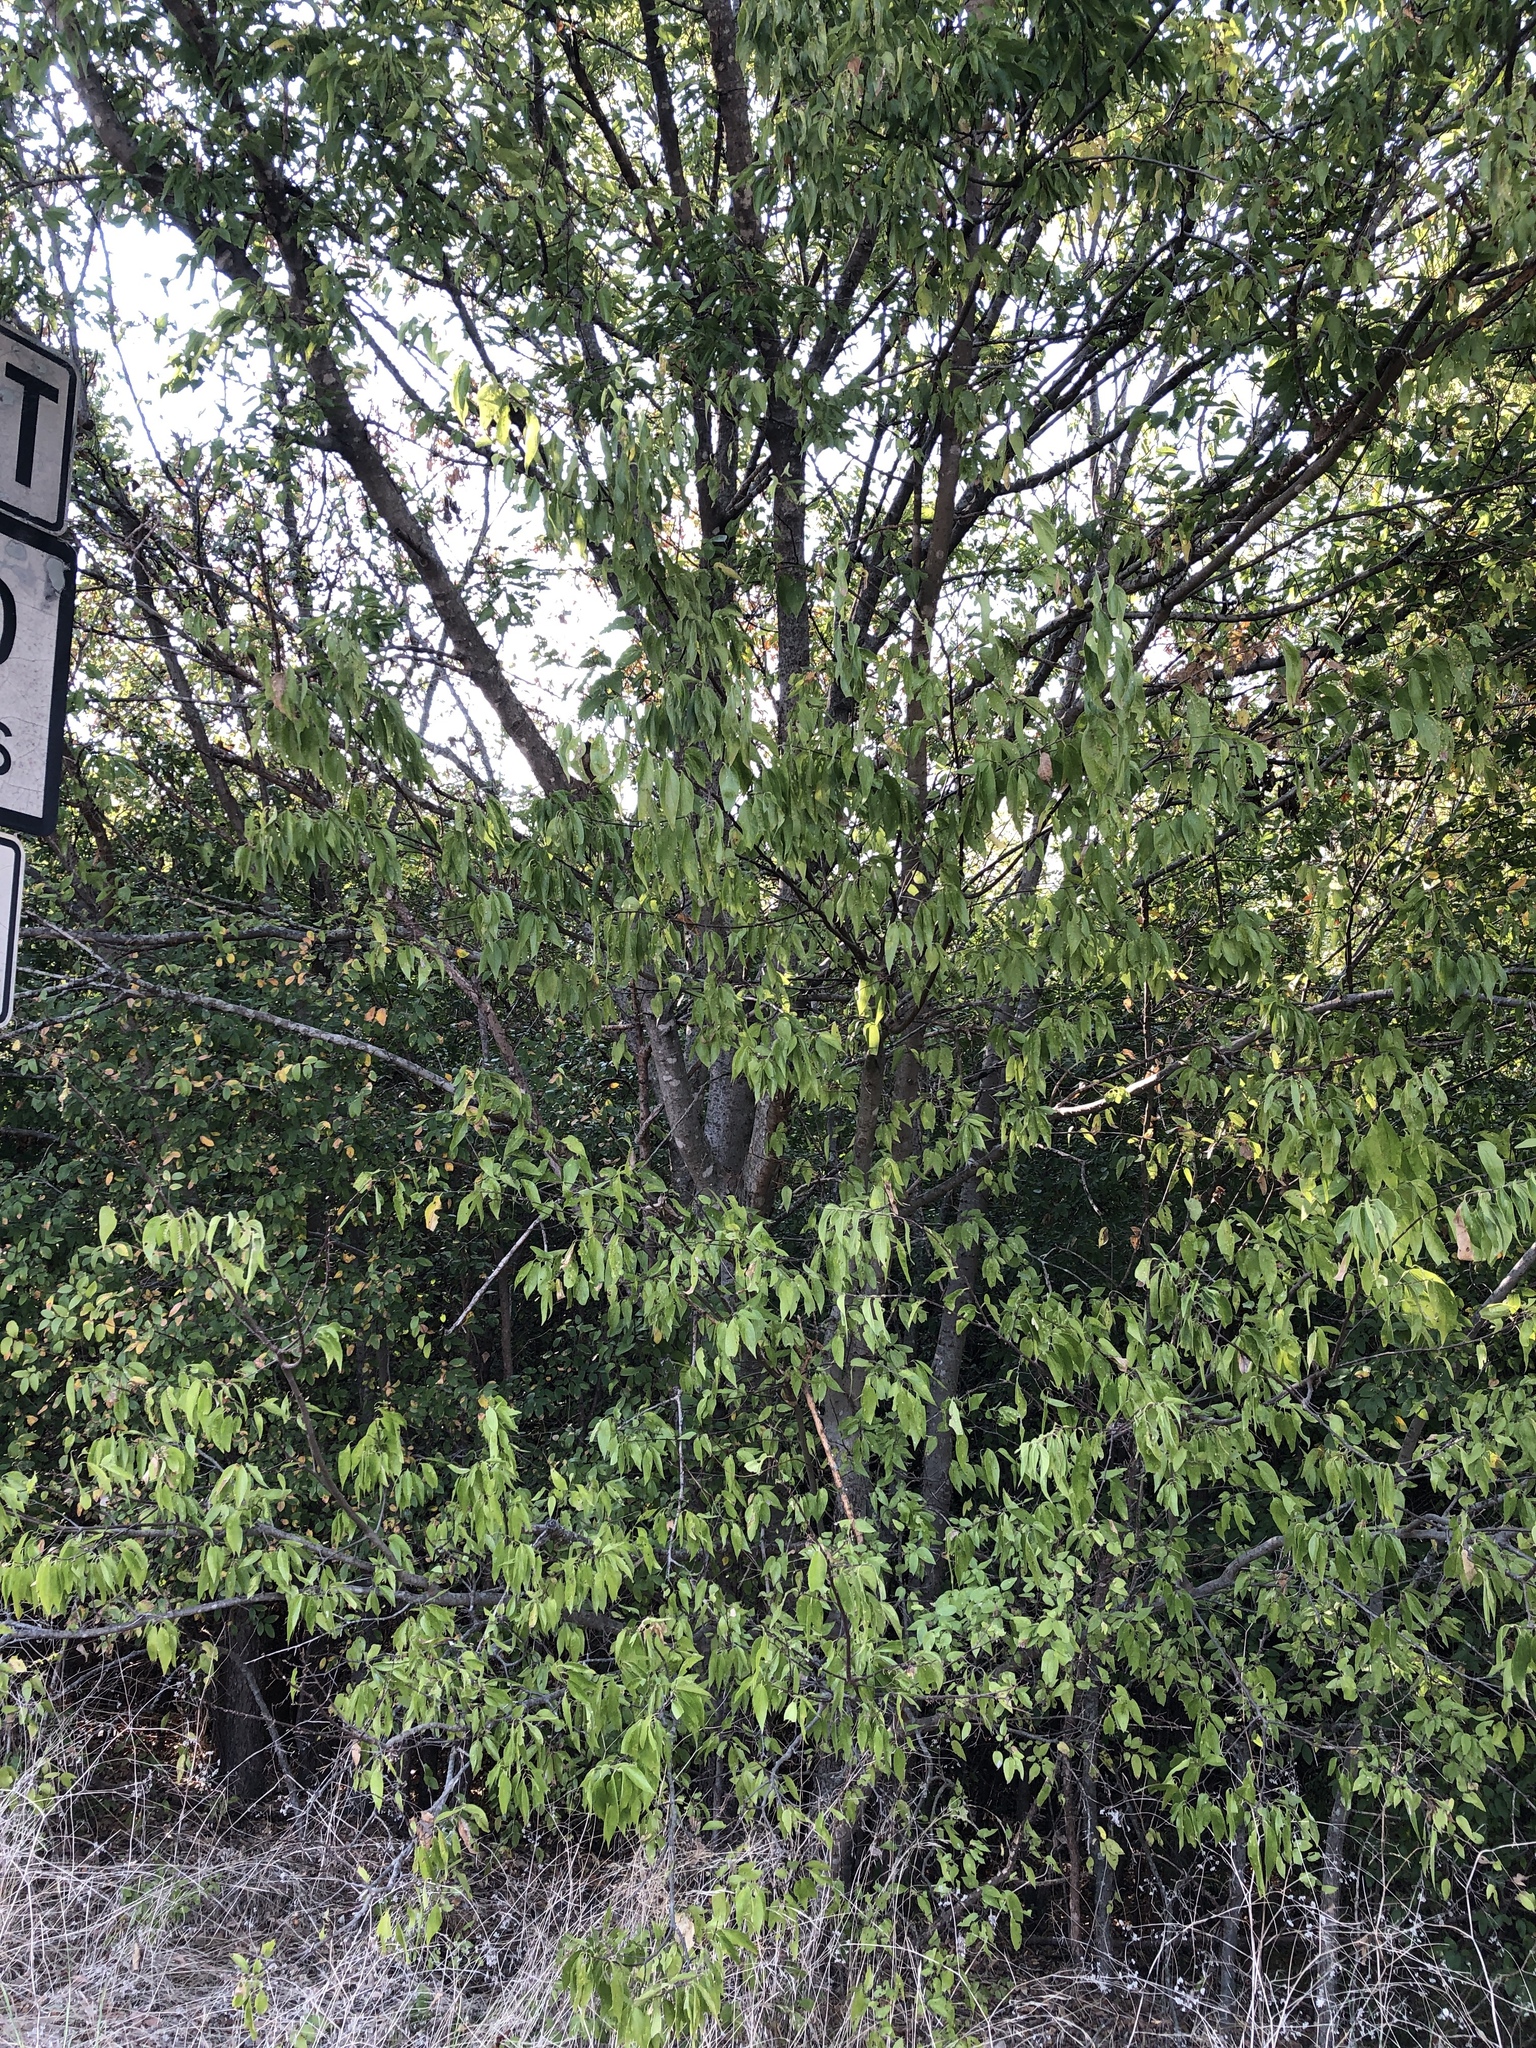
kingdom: Plantae
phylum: Tracheophyta
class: Magnoliopsida
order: Rosales
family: Cannabaceae
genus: Celtis
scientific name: Celtis laevigata
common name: Sugarberry
